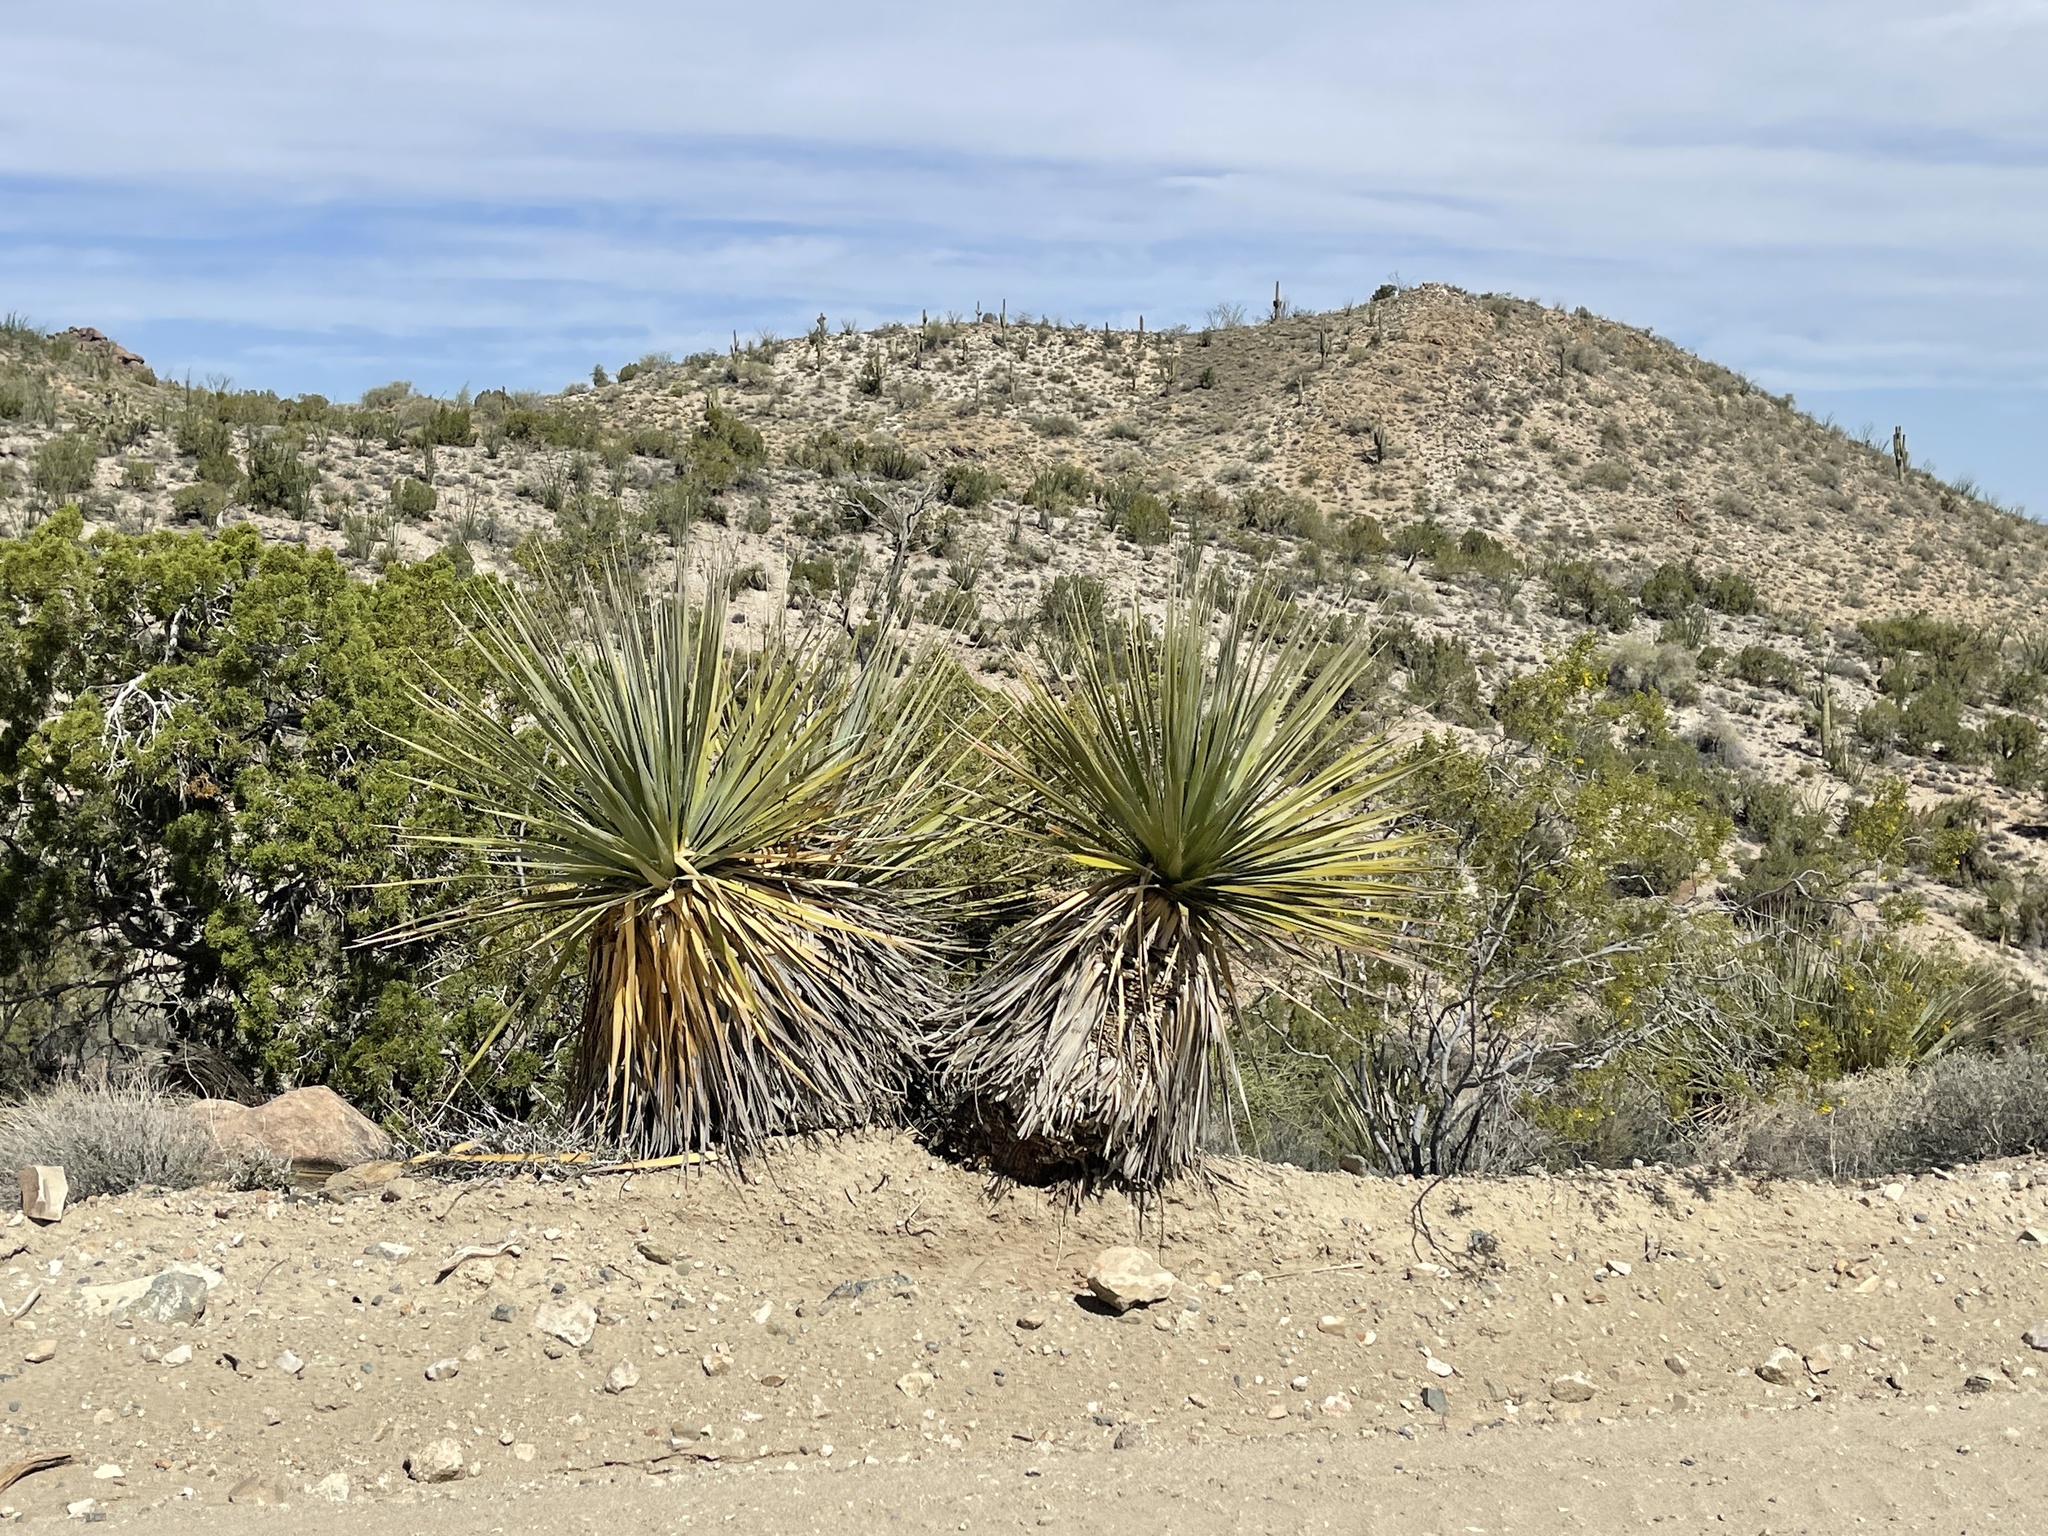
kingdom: Plantae
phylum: Tracheophyta
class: Liliopsida
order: Asparagales
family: Asparagaceae
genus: Nolina
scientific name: Nolina bigelovii
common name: Bigelow bear-grass
